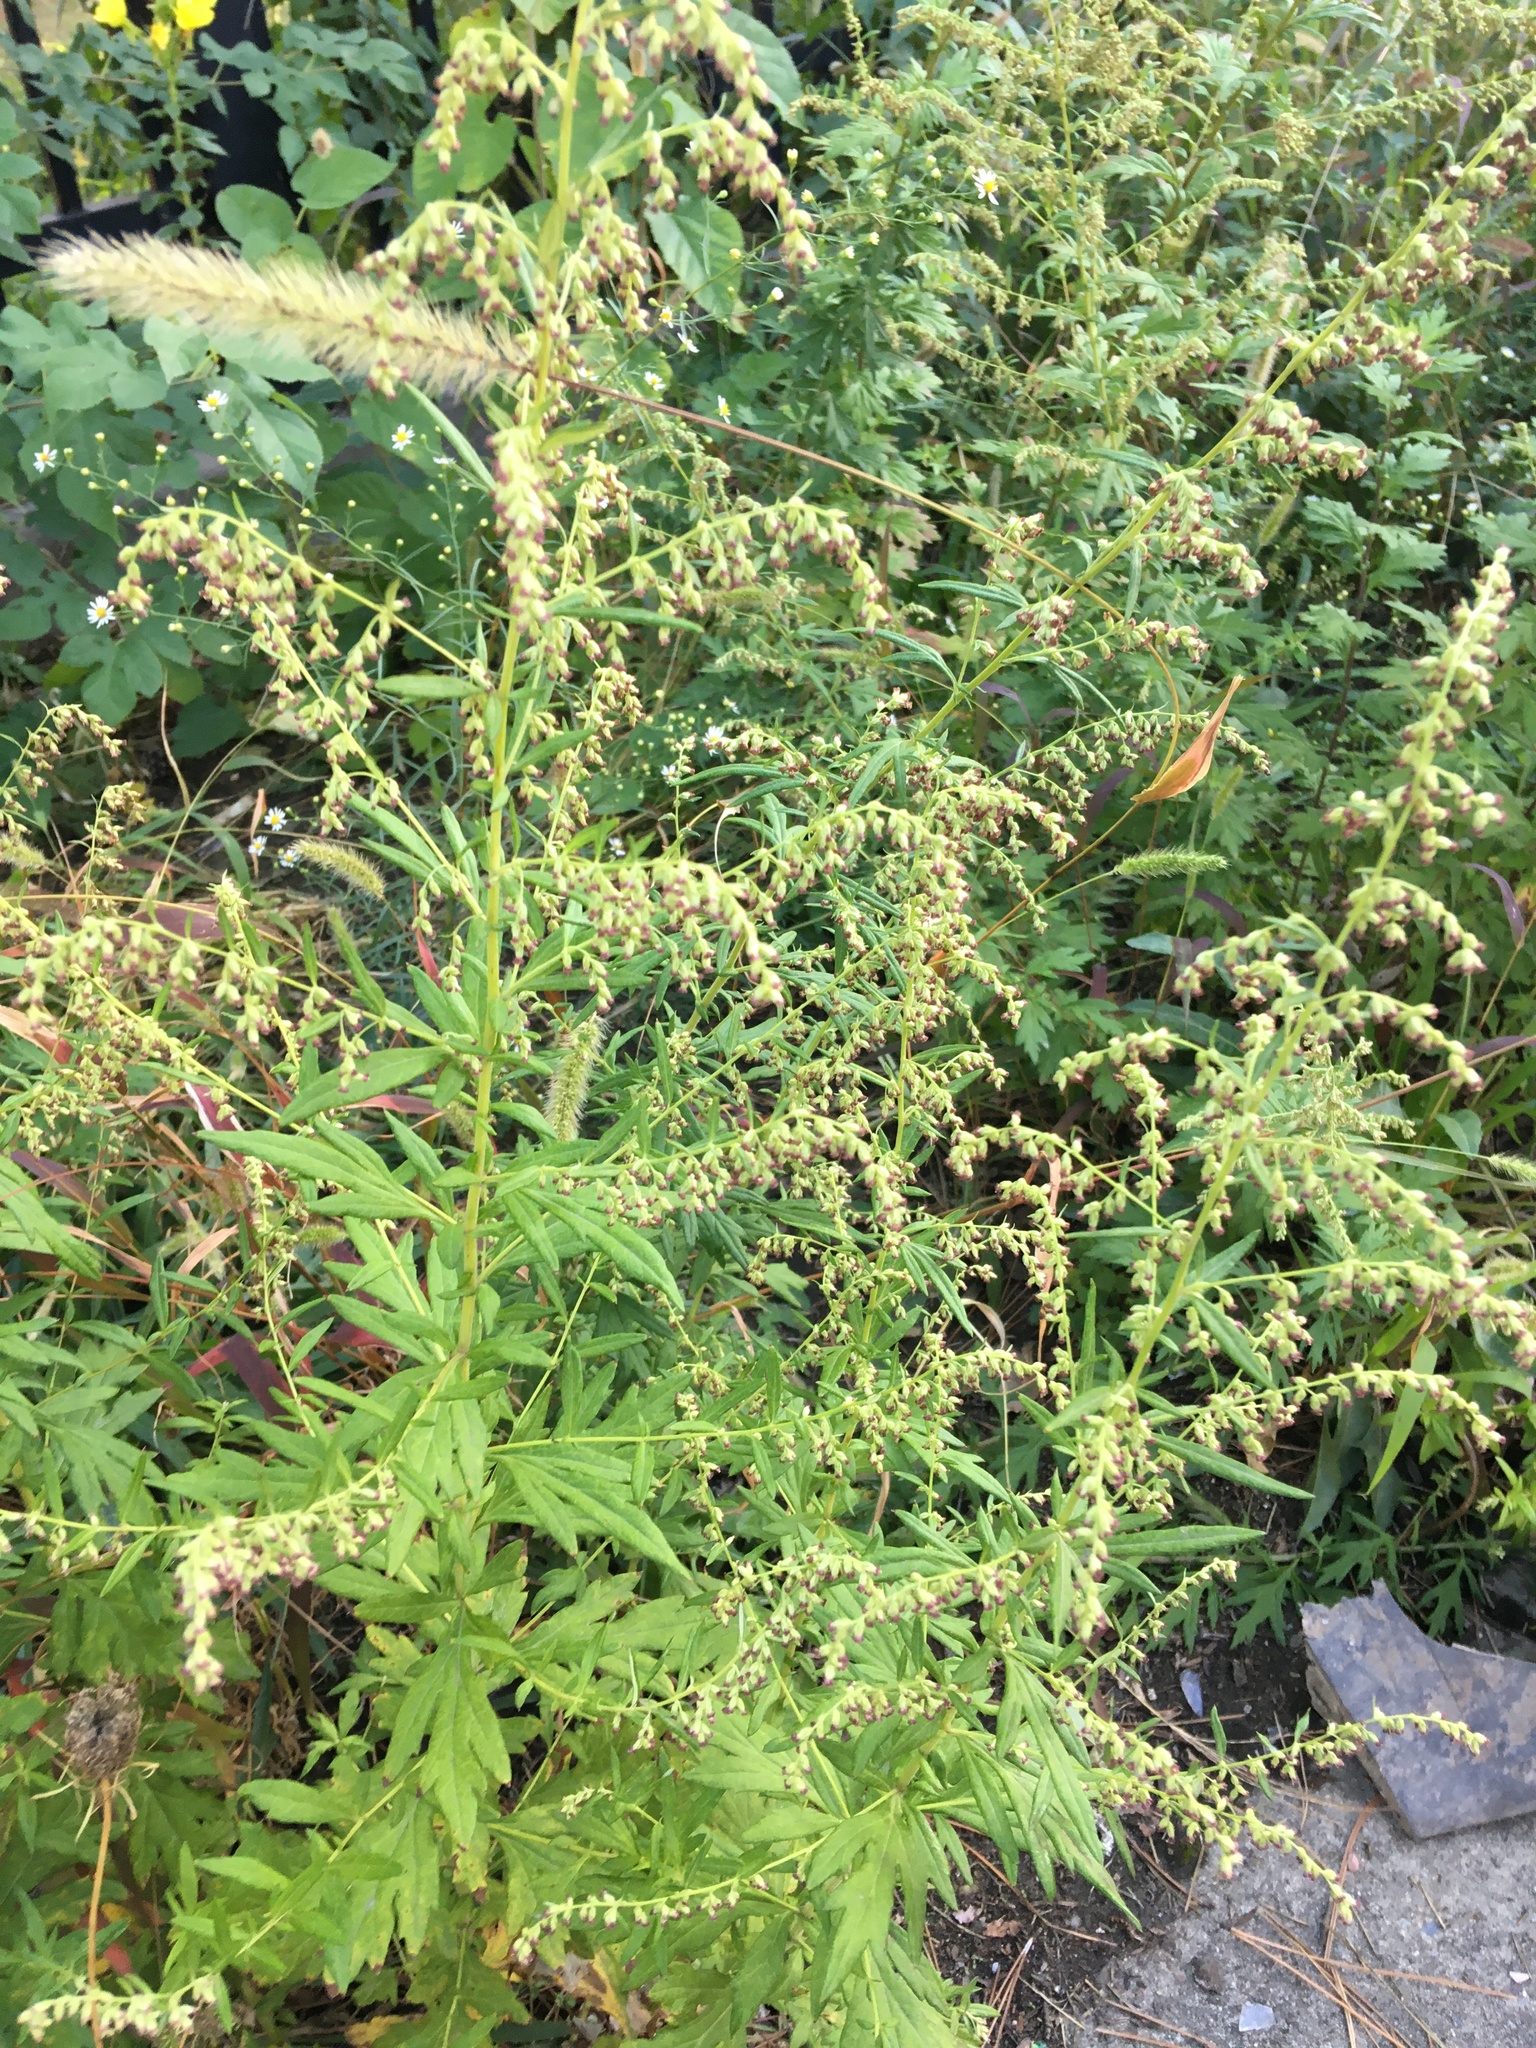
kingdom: Plantae
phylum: Tracheophyta
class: Magnoliopsida
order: Asterales
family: Asteraceae
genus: Artemisia
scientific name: Artemisia vulgaris
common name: Mugwort
